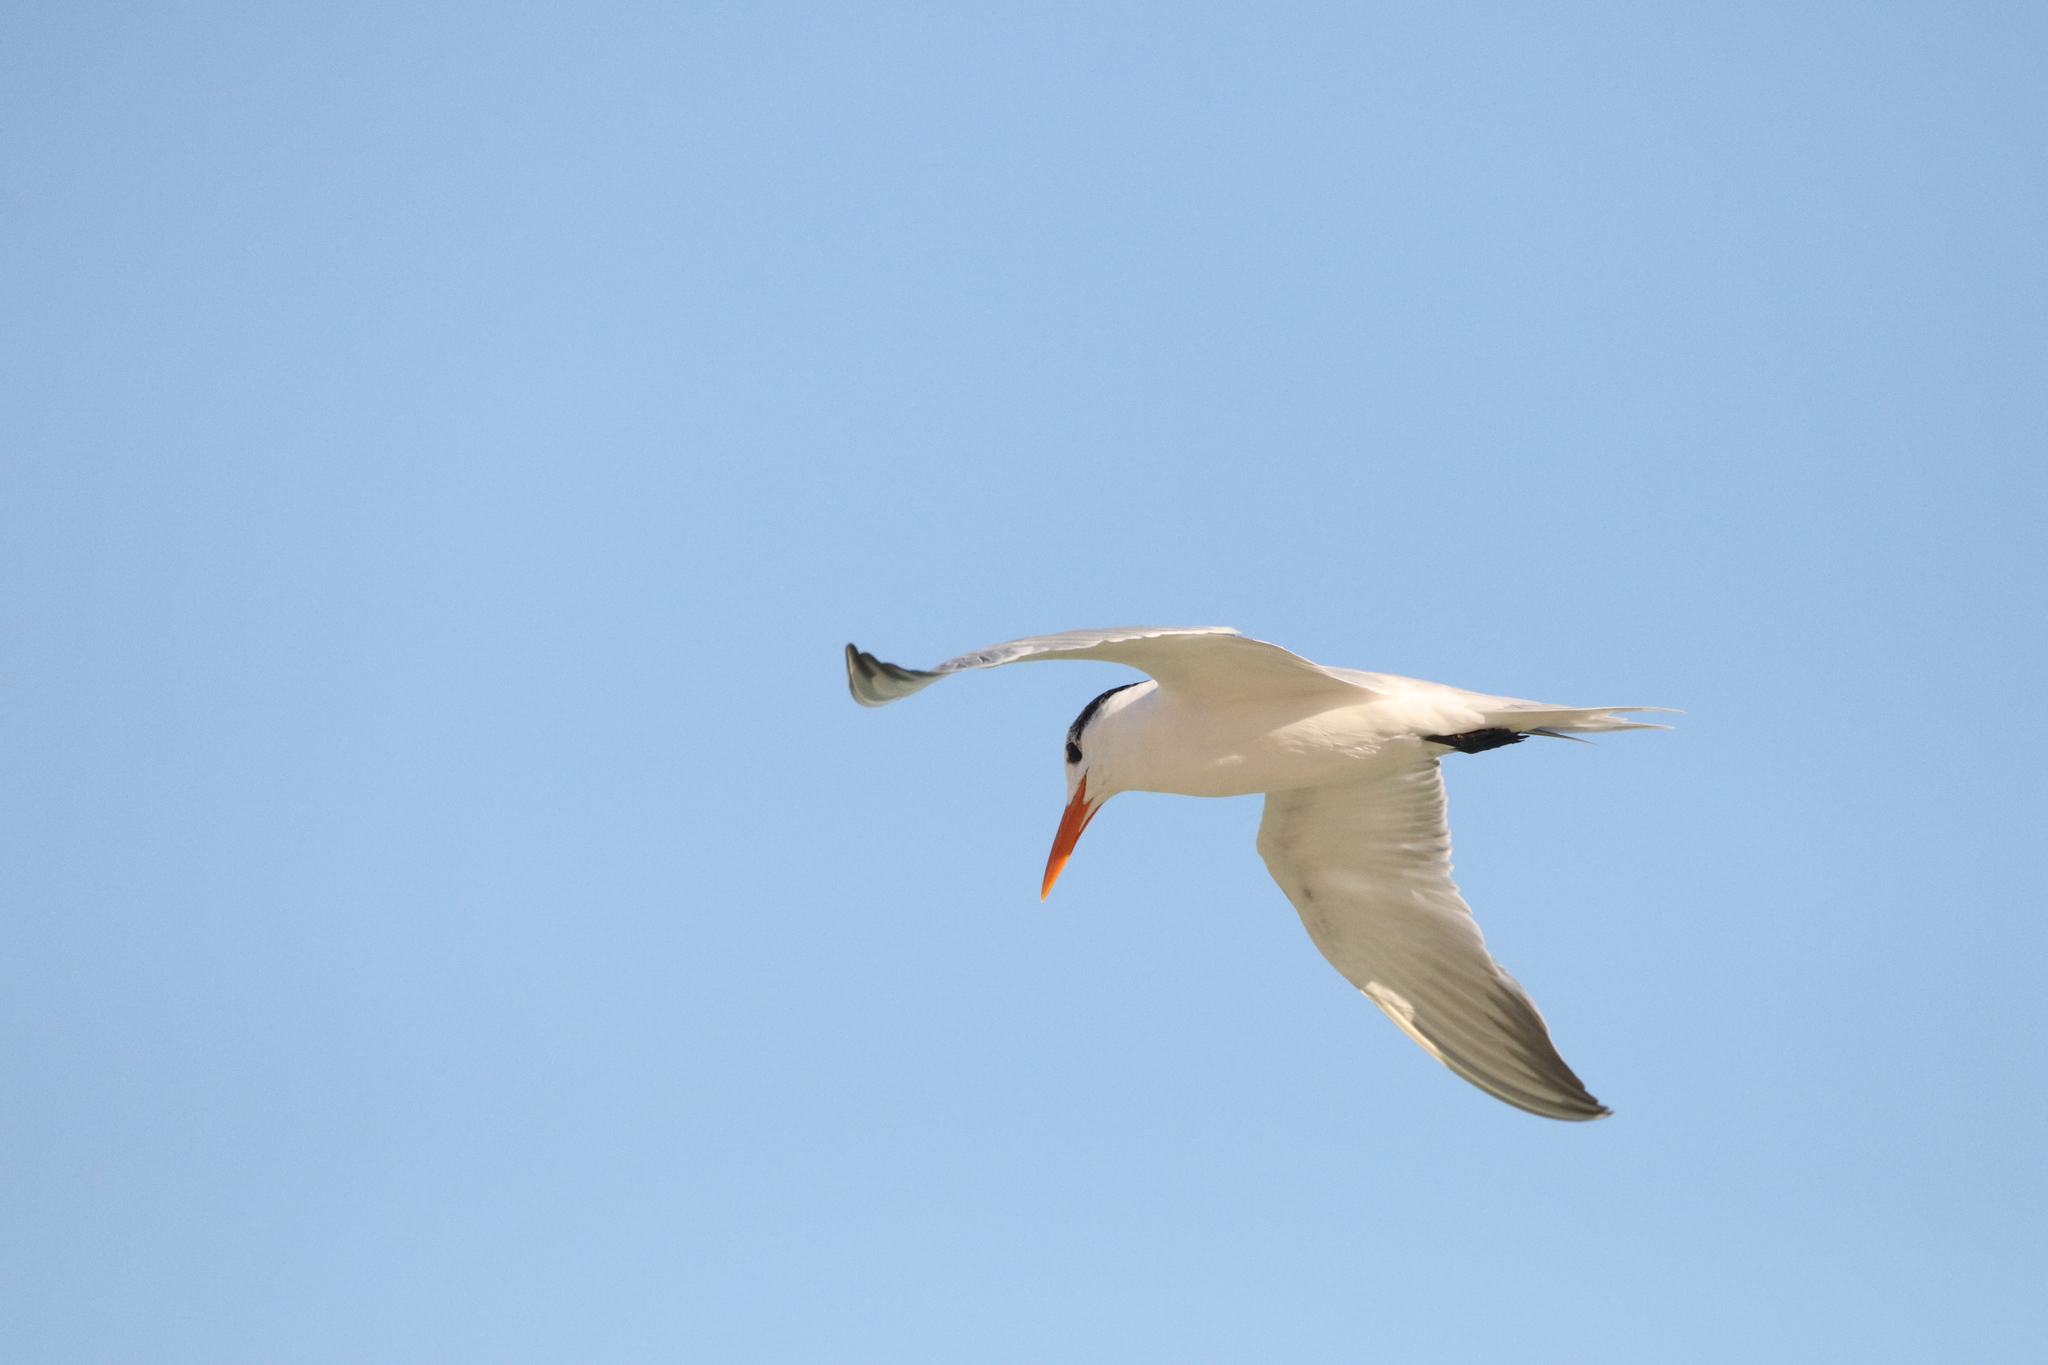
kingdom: Animalia
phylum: Chordata
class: Aves
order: Charadriiformes
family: Laridae
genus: Thalasseus
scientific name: Thalasseus maximus
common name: Royal tern
